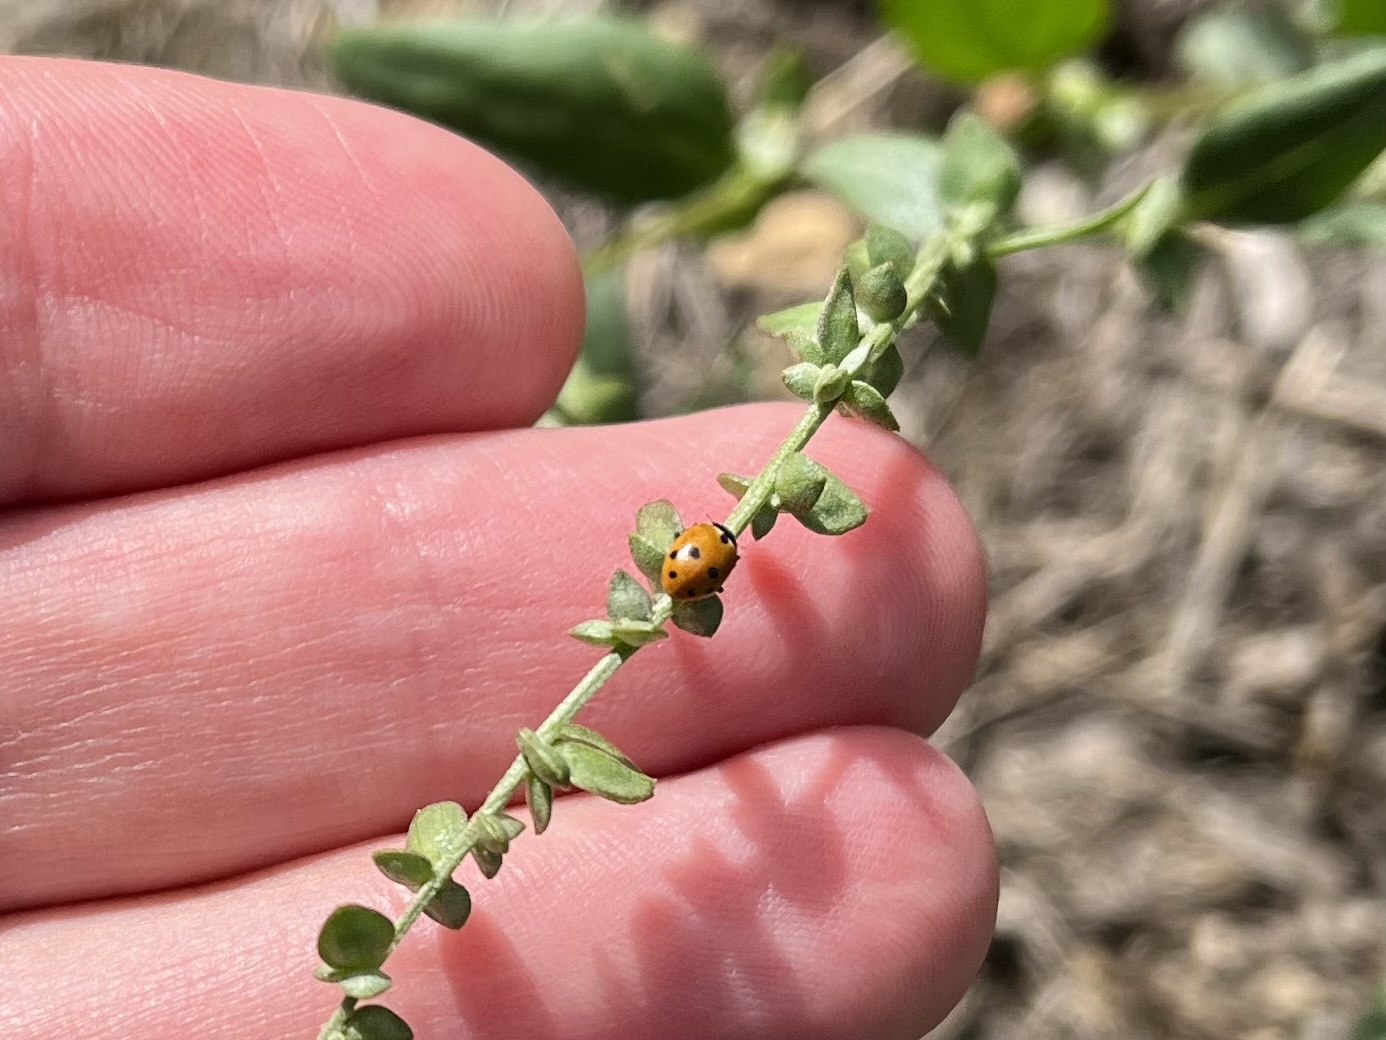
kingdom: Animalia
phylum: Arthropoda
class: Insecta
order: Coleoptera
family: Coccinellidae
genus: Hippodamia
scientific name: Hippodamia variegata
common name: Ladybird beetle
